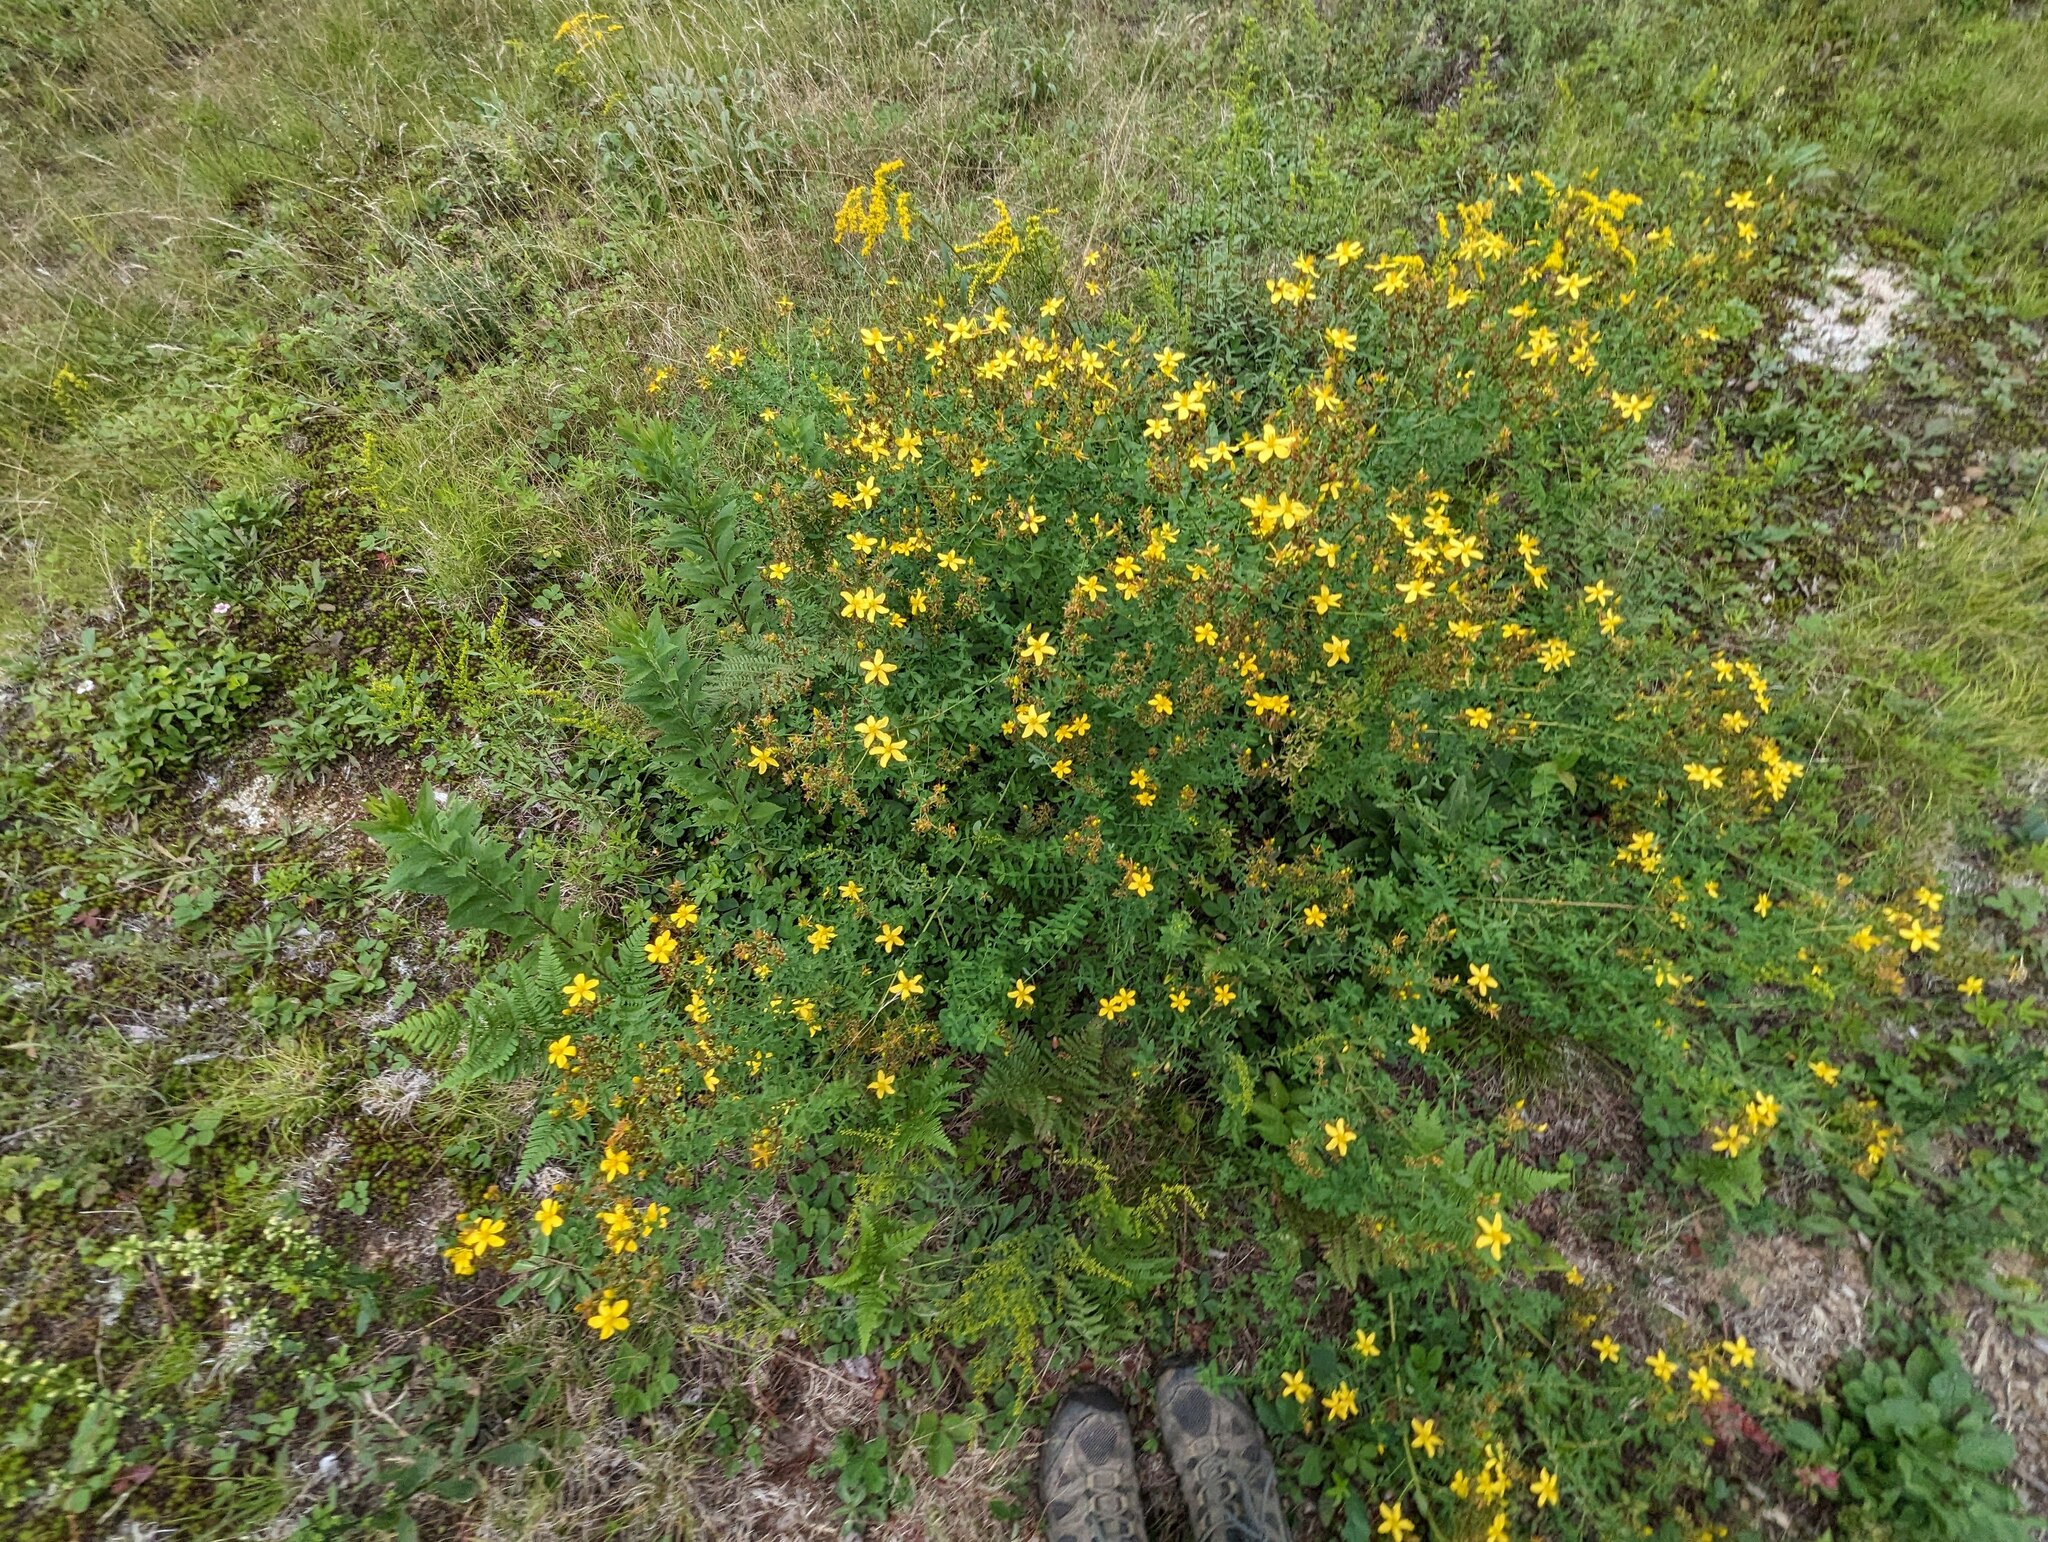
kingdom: Plantae
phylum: Tracheophyta
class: Magnoliopsida
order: Malpighiales
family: Hypericaceae
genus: Hypericum
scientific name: Hypericum perforatum
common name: Common st. johnswort
